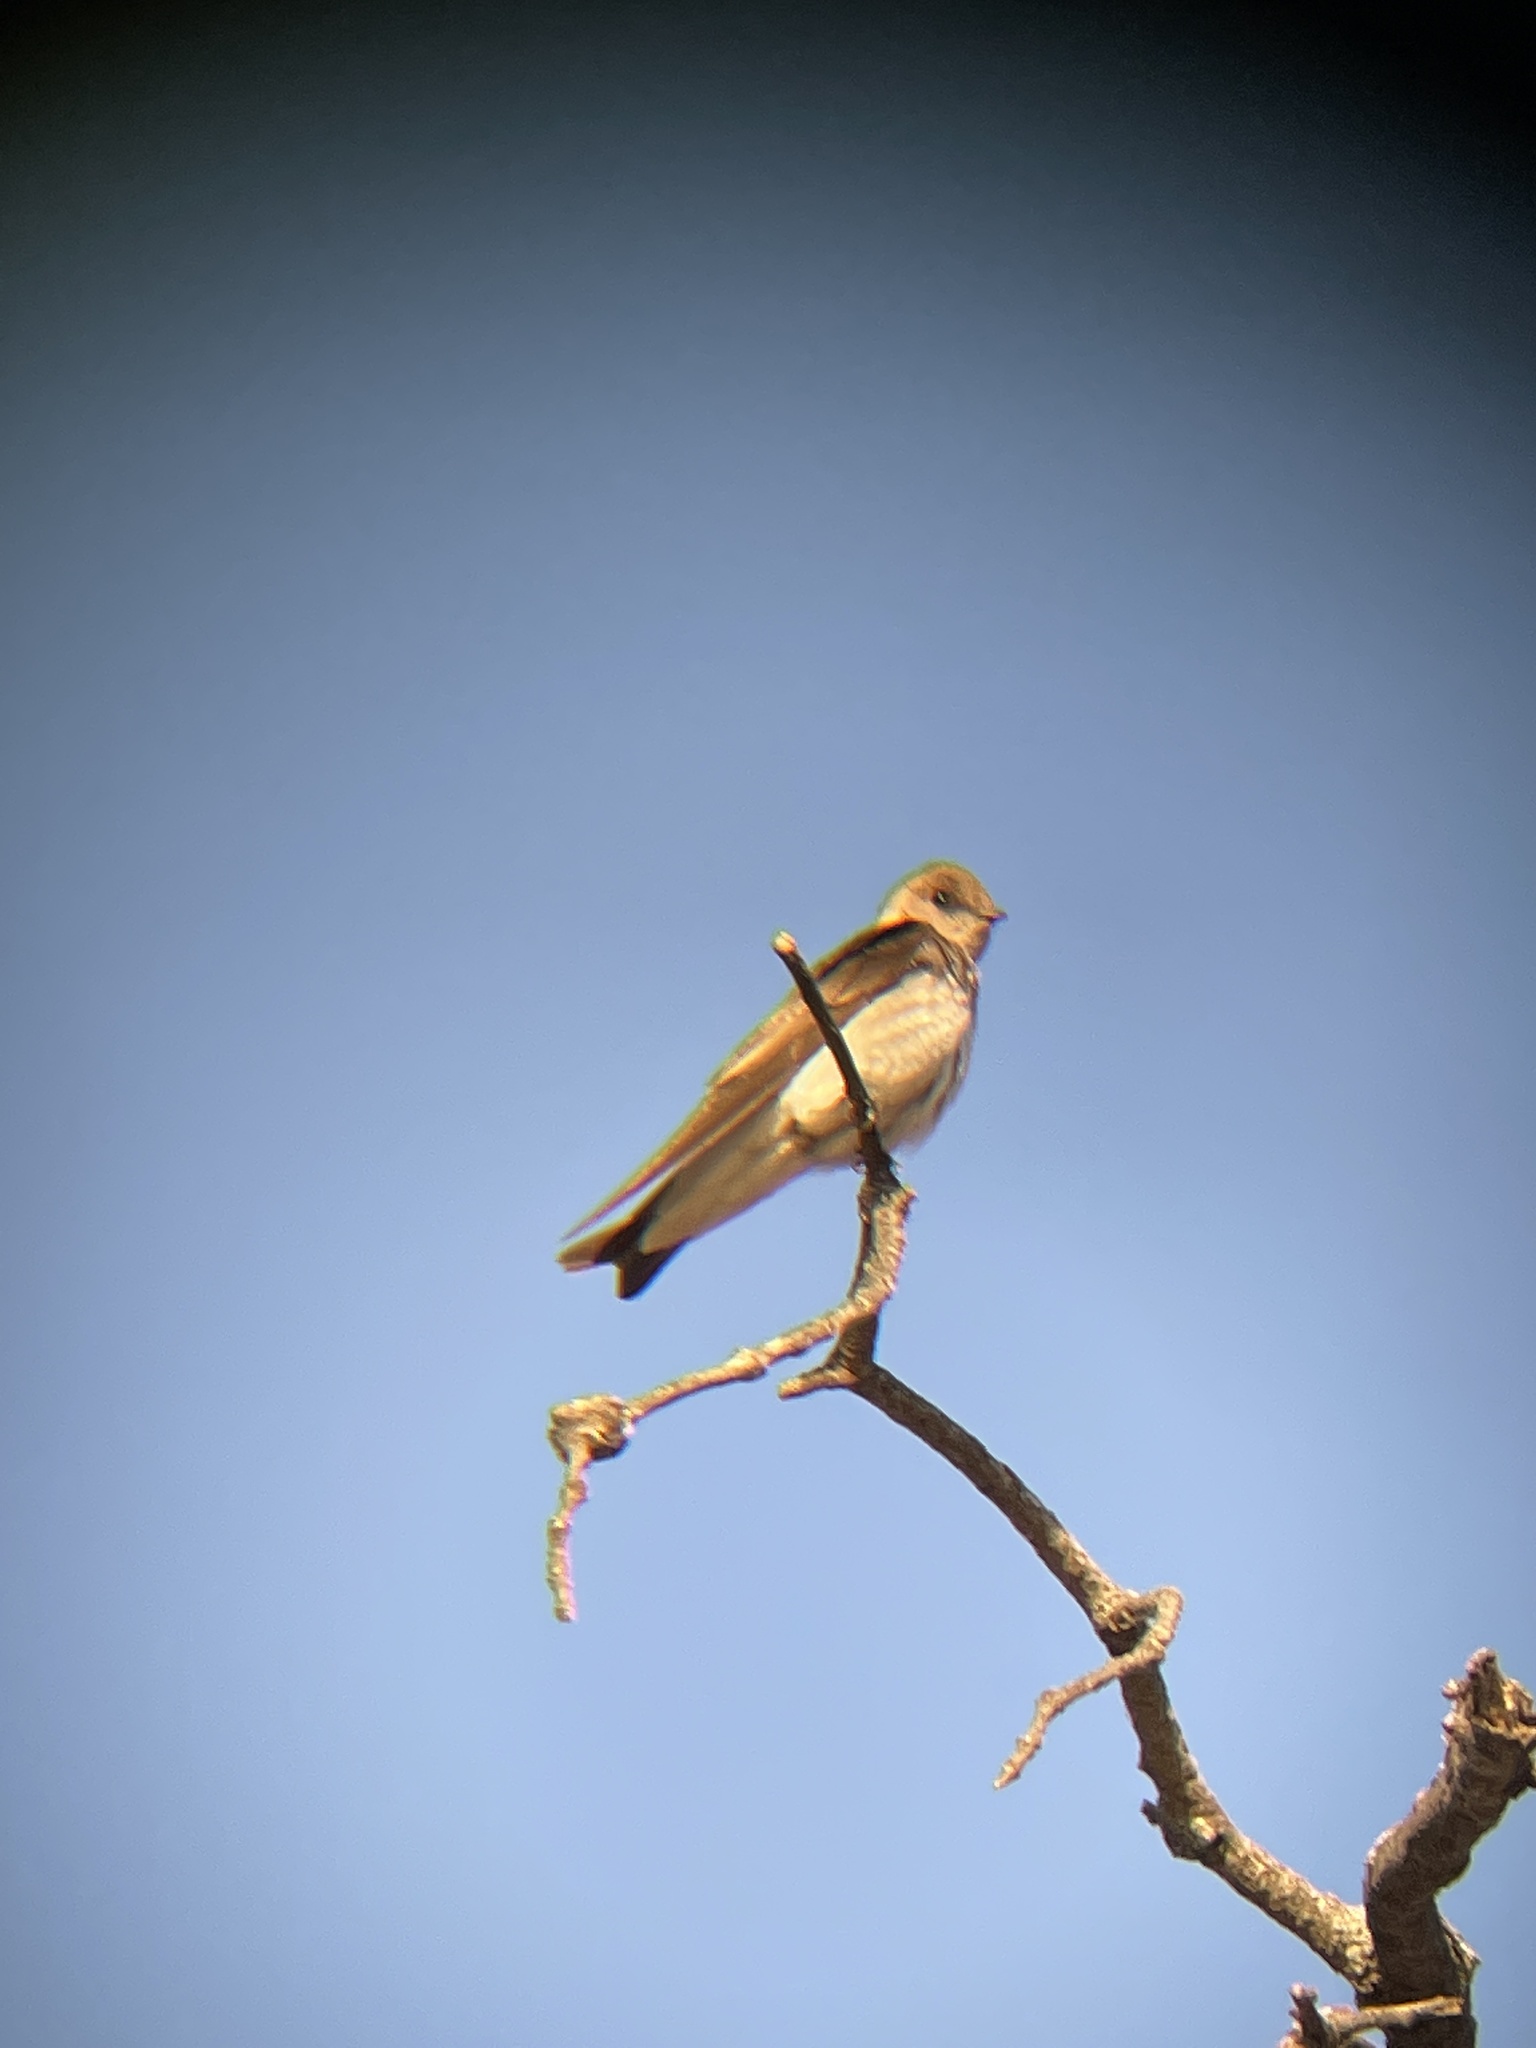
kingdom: Animalia
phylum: Chordata
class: Aves
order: Passeriformes
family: Hirundinidae
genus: Stelgidopteryx
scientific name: Stelgidopteryx serripennis
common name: Northern rough-winged swallow
